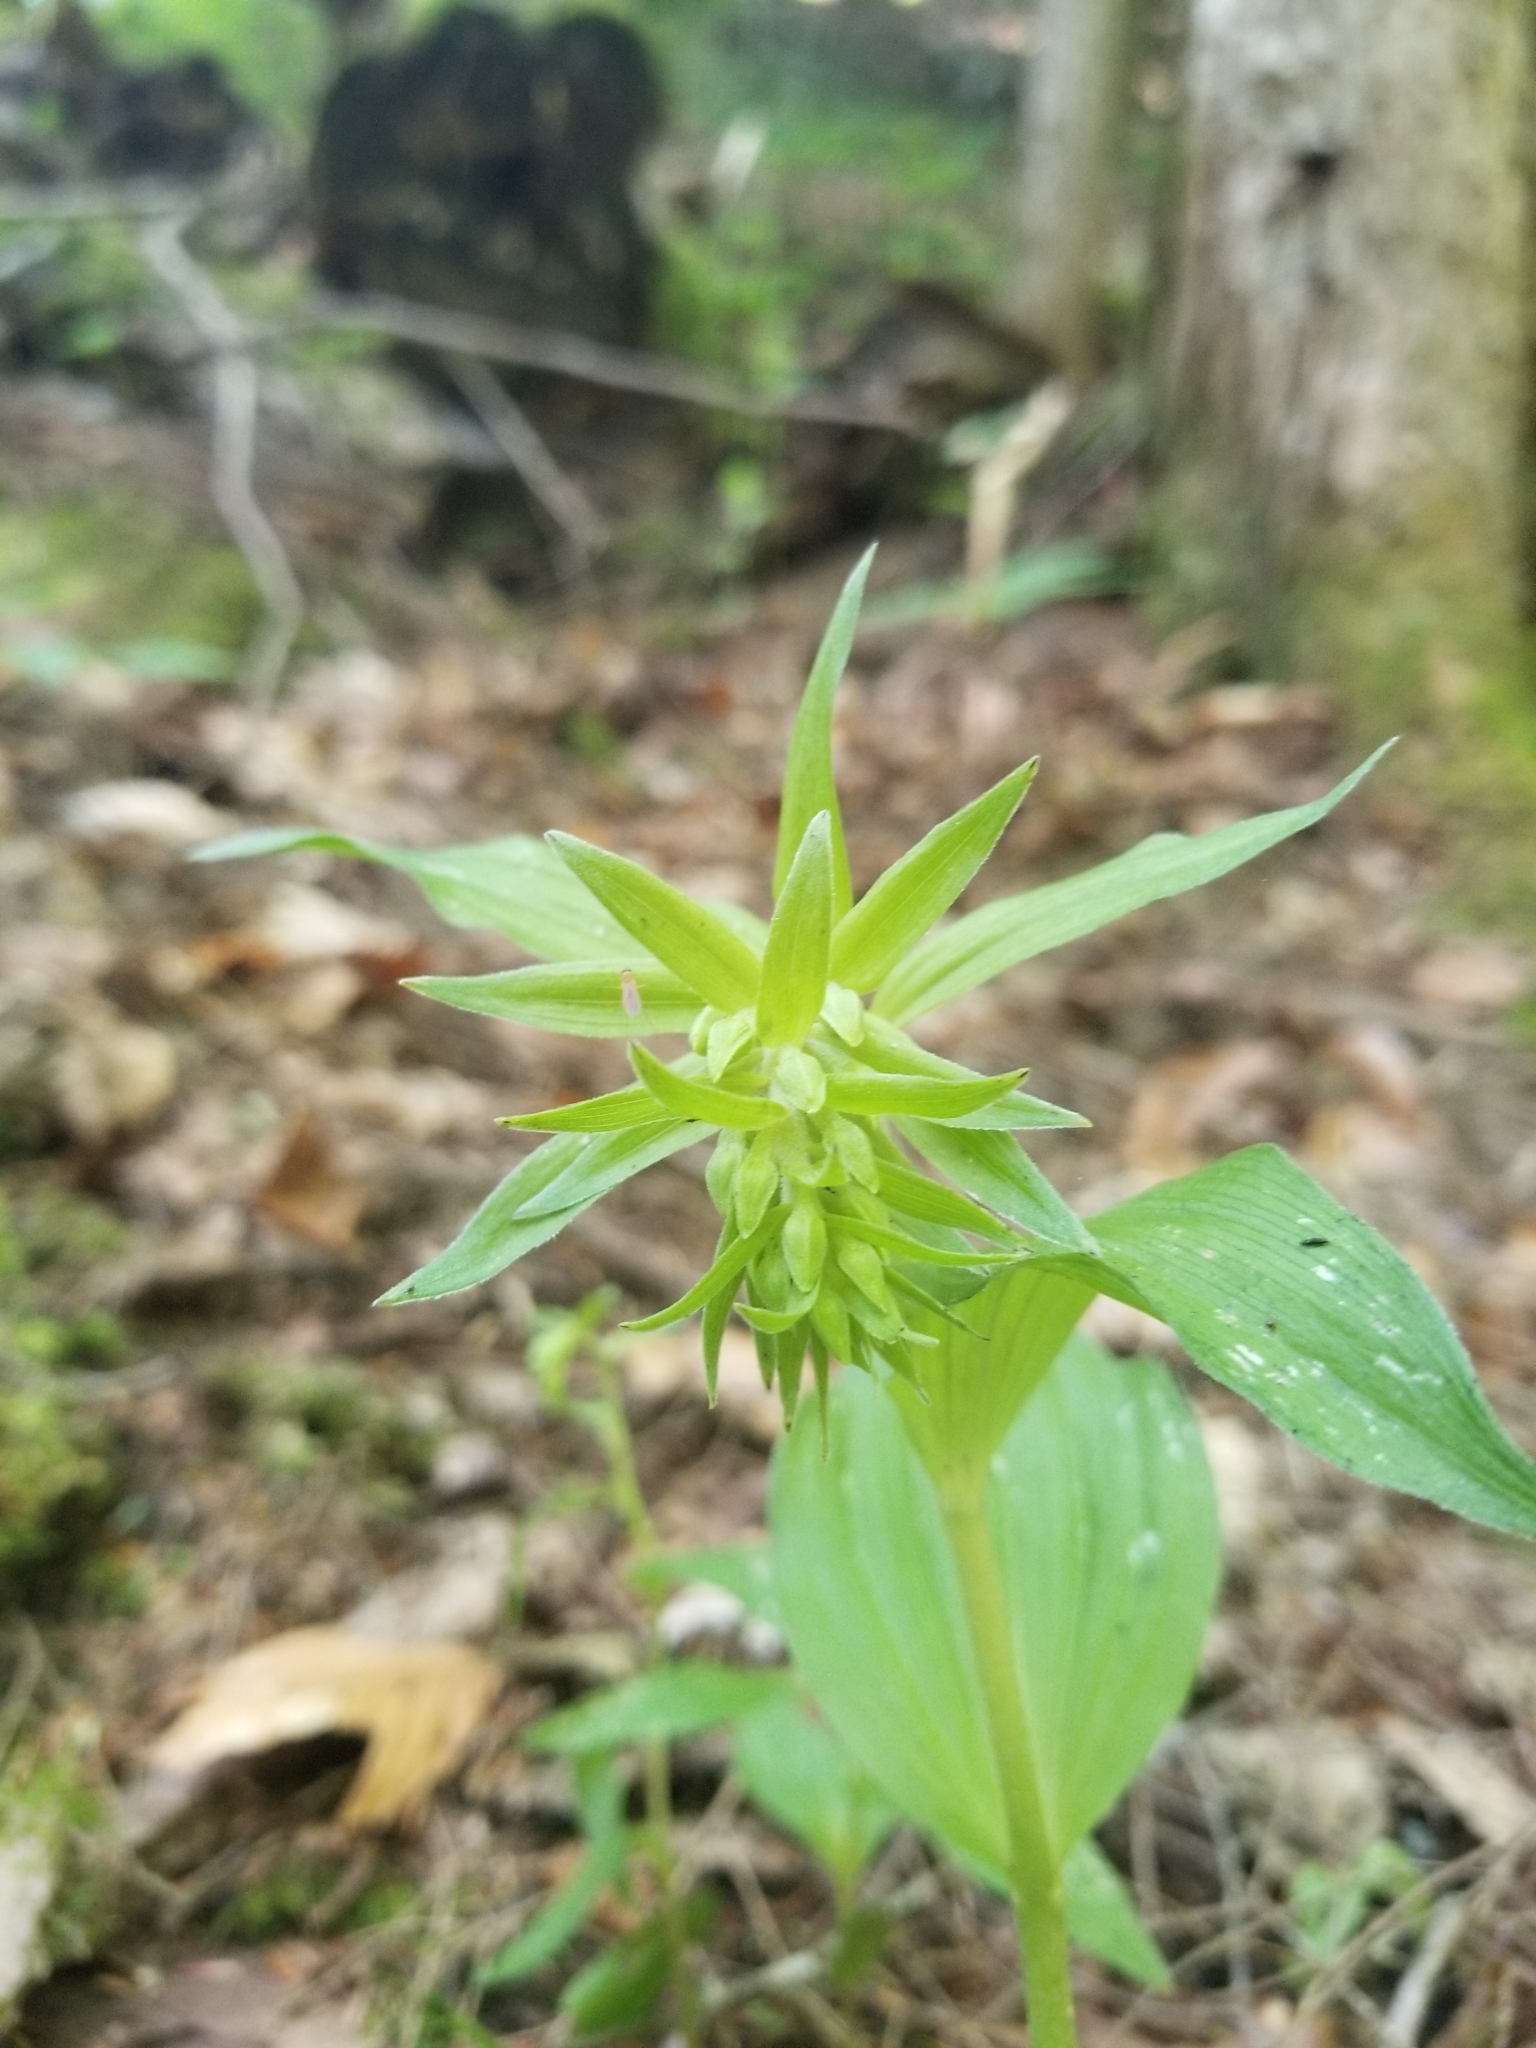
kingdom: Plantae
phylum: Tracheophyta
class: Liliopsida
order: Asparagales
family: Orchidaceae
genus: Epipactis
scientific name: Epipactis helleborine
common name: Broad-leaved helleborine
